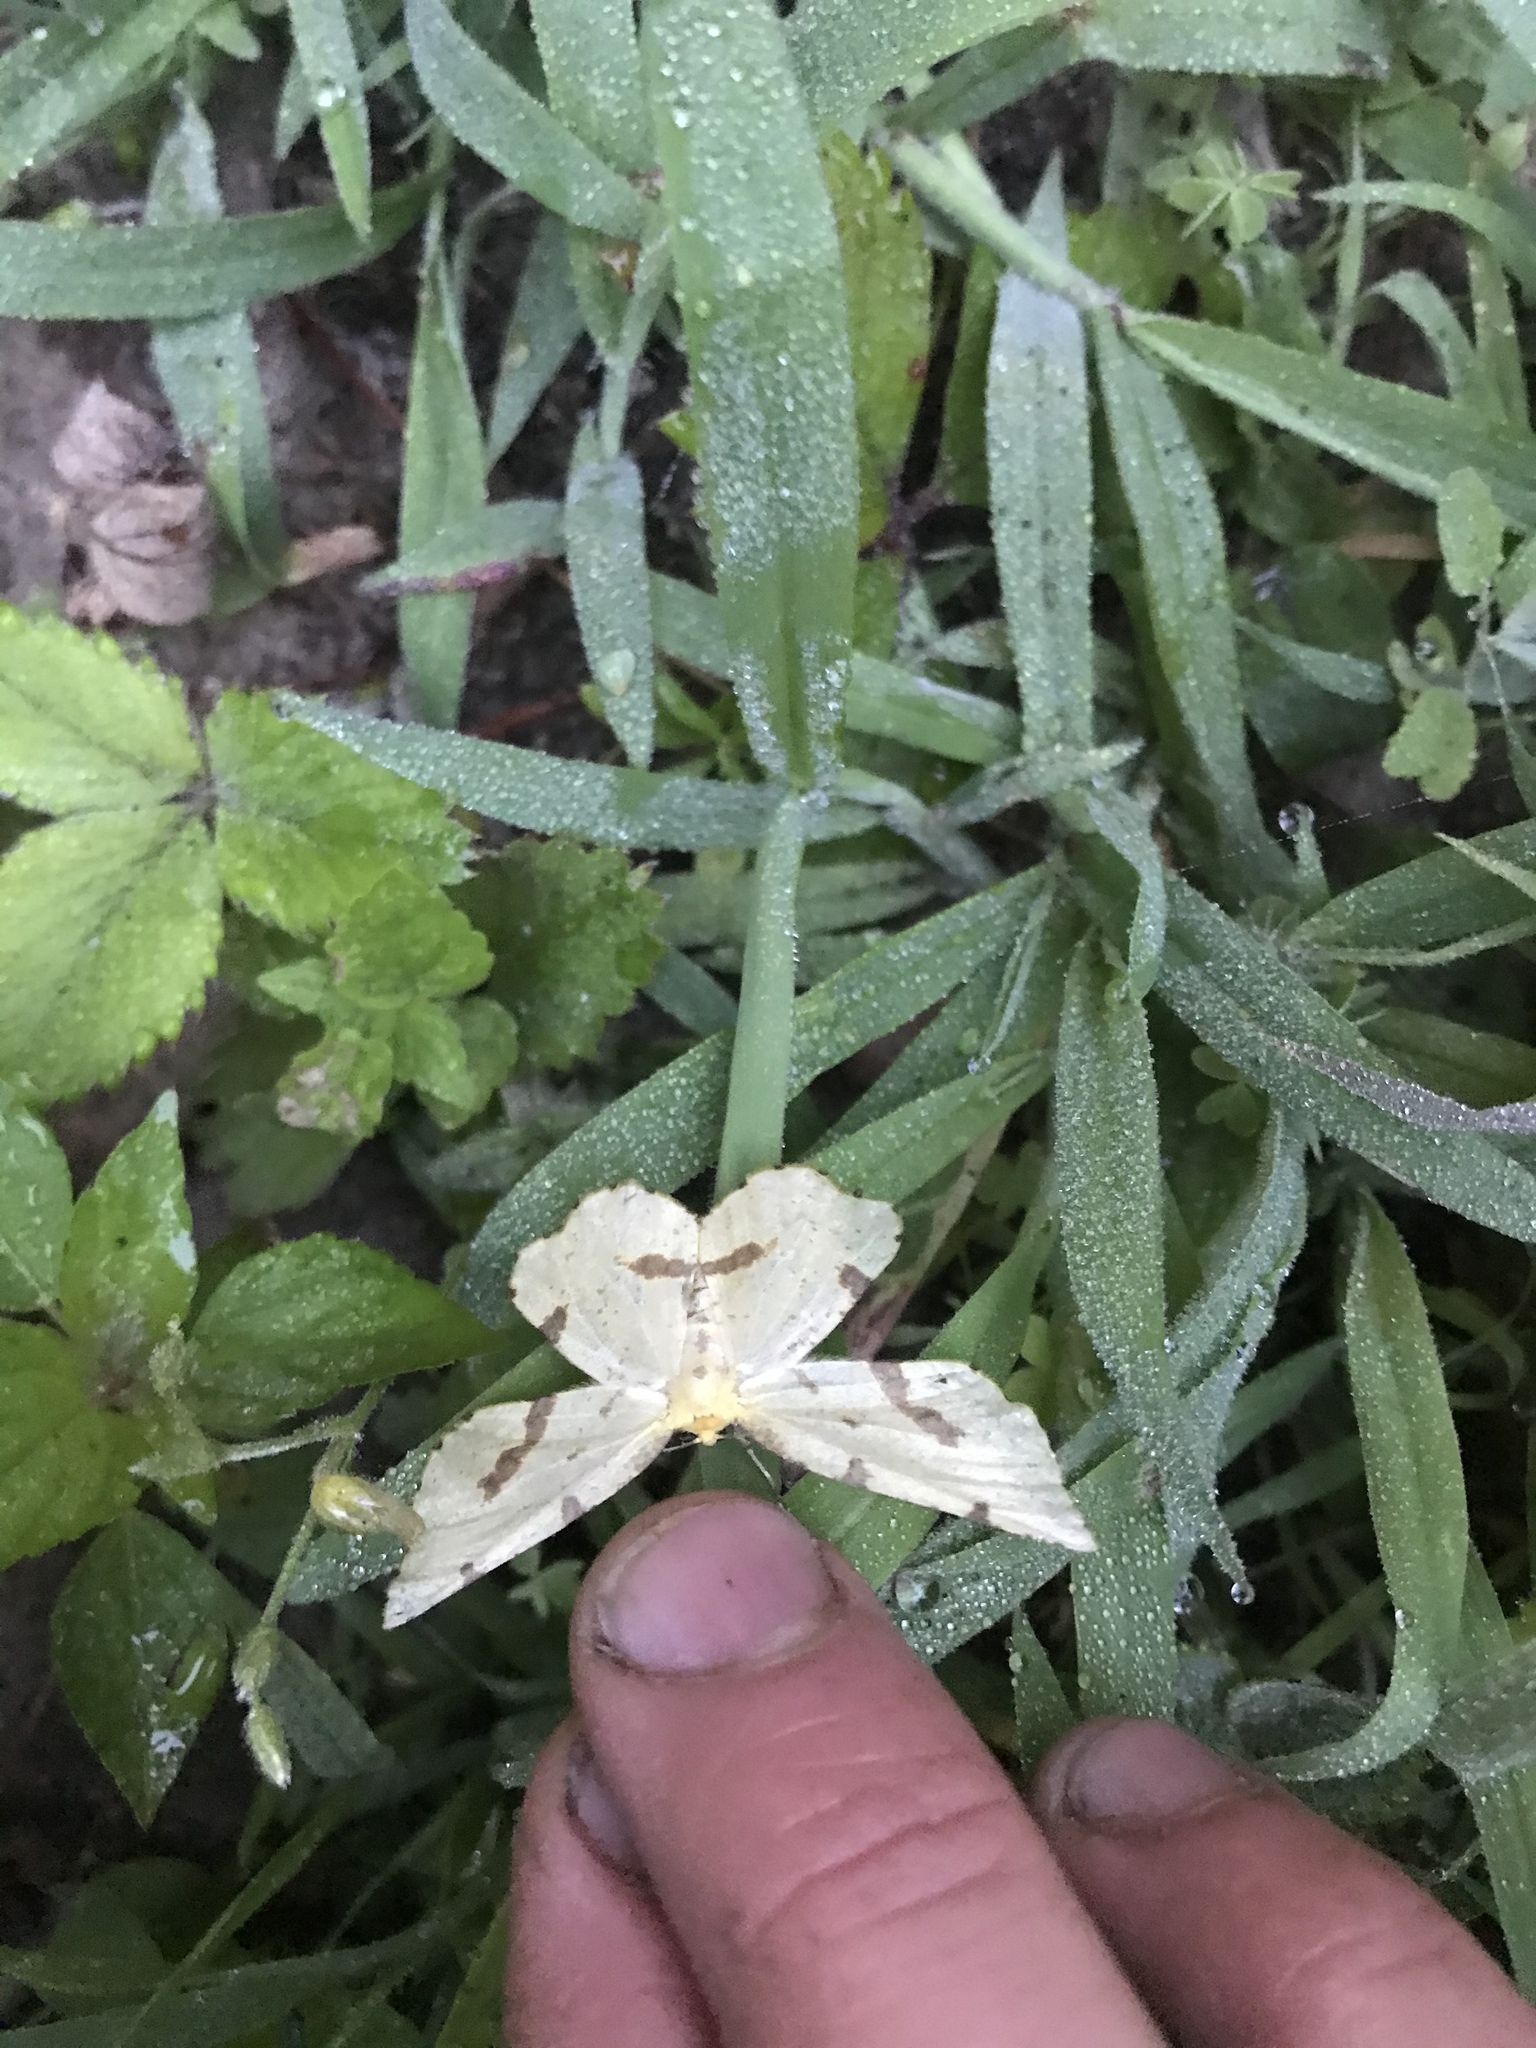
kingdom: Animalia
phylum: Arthropoda
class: Insecta
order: Lepidoptera
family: Geometridae
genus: Xanthotype
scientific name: Xanthotype
